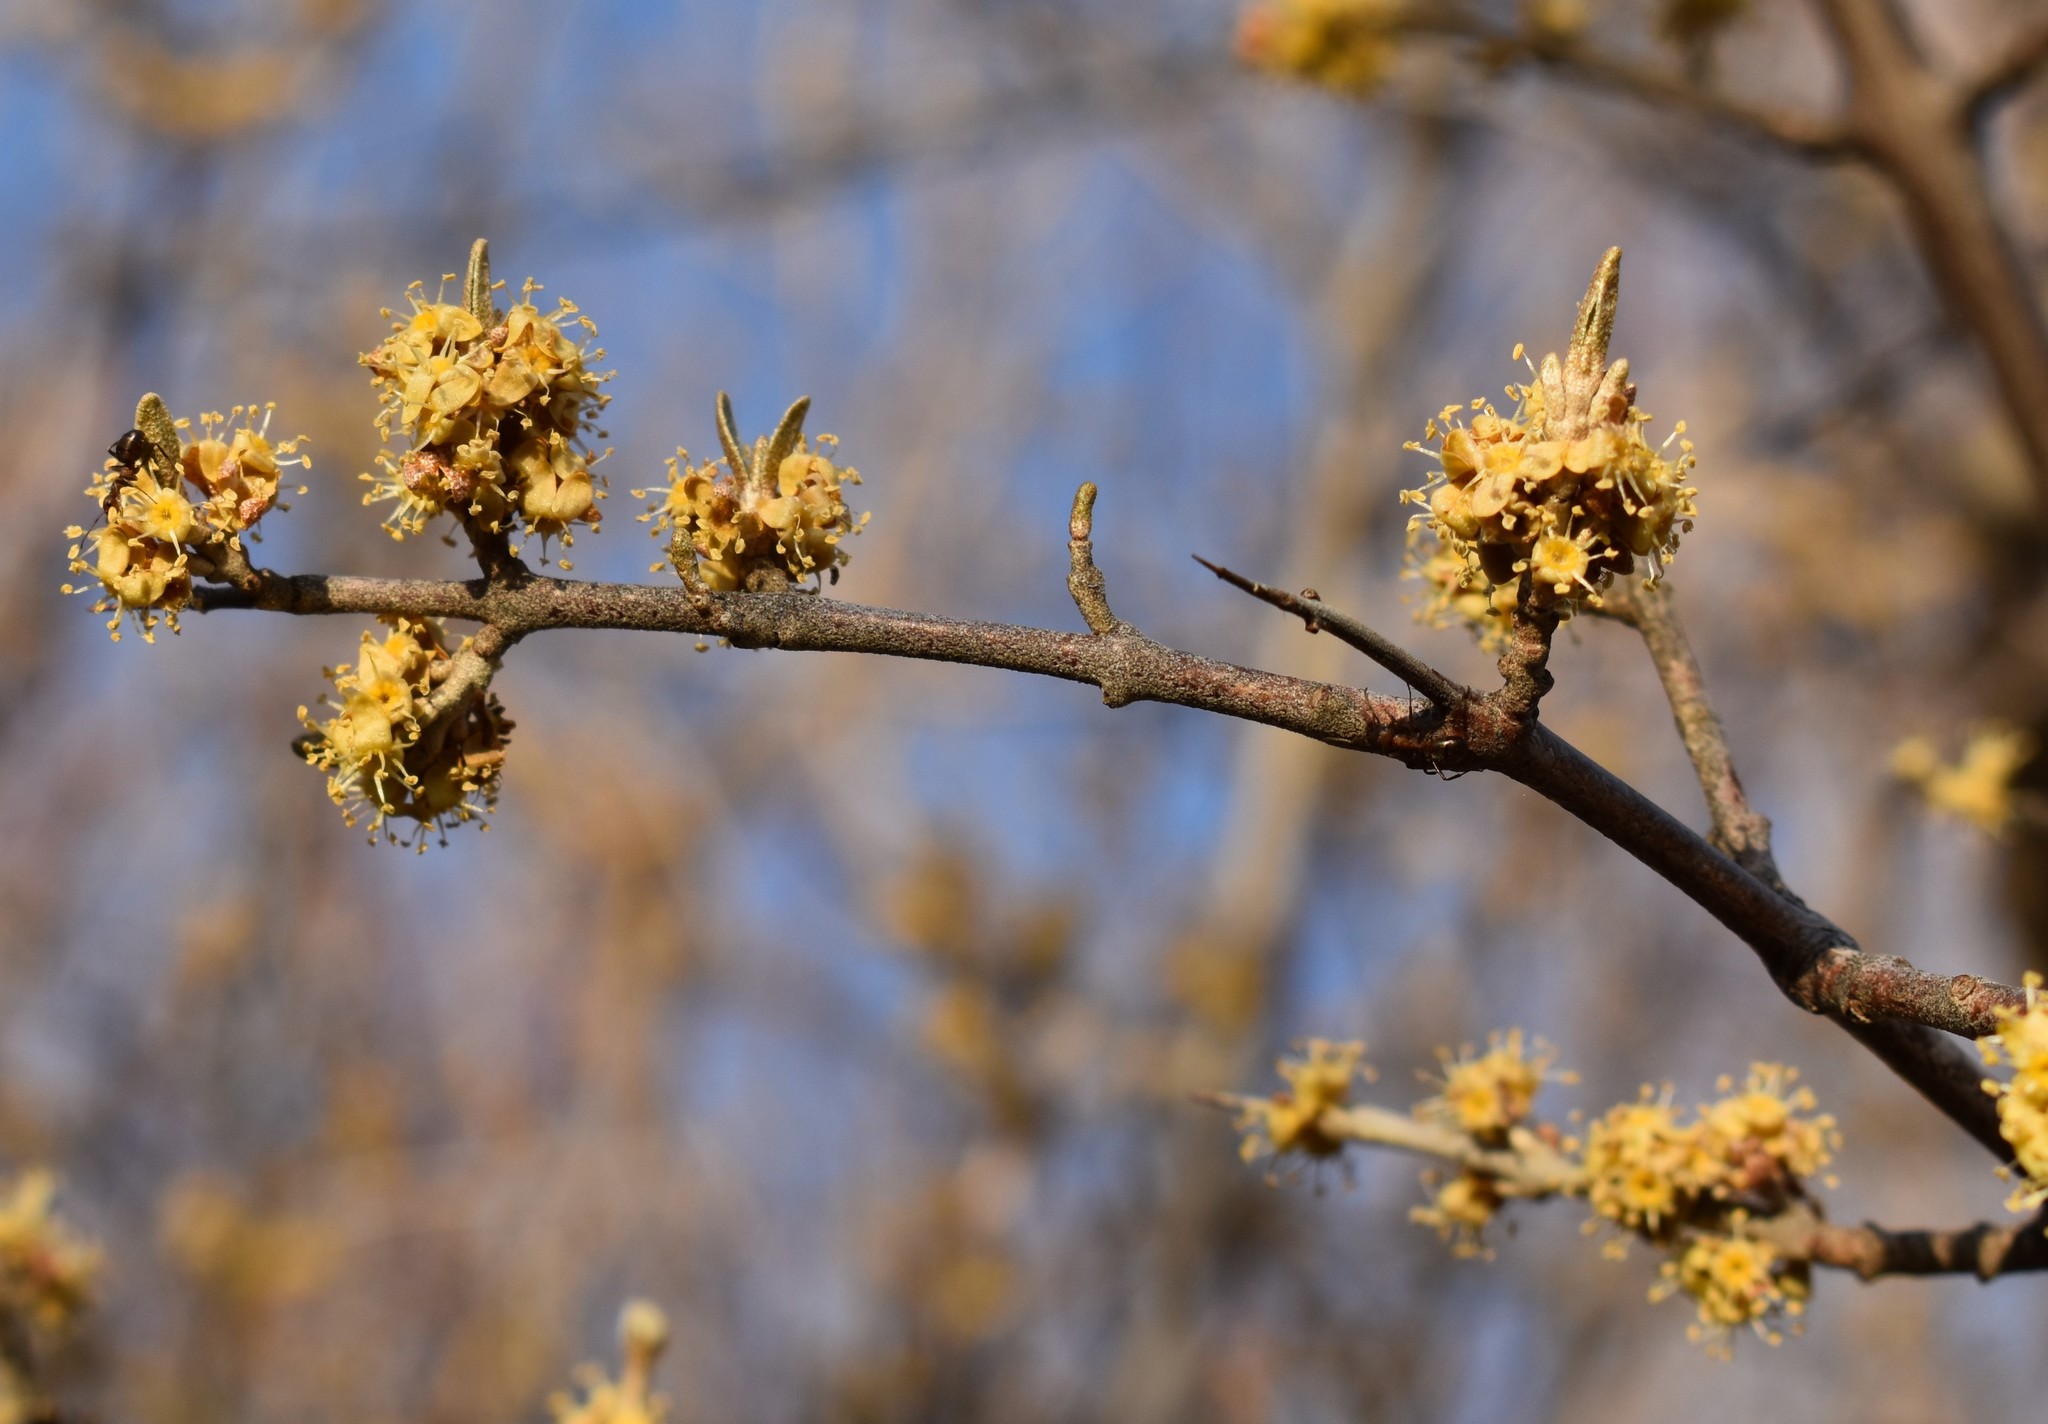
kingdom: Plantae
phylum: Tracheophyta
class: Magnoliopsida
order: Rosales
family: Elaeagnaceae
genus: Shepherdia
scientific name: Shepherdia argentea
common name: Silver buffaloberry
